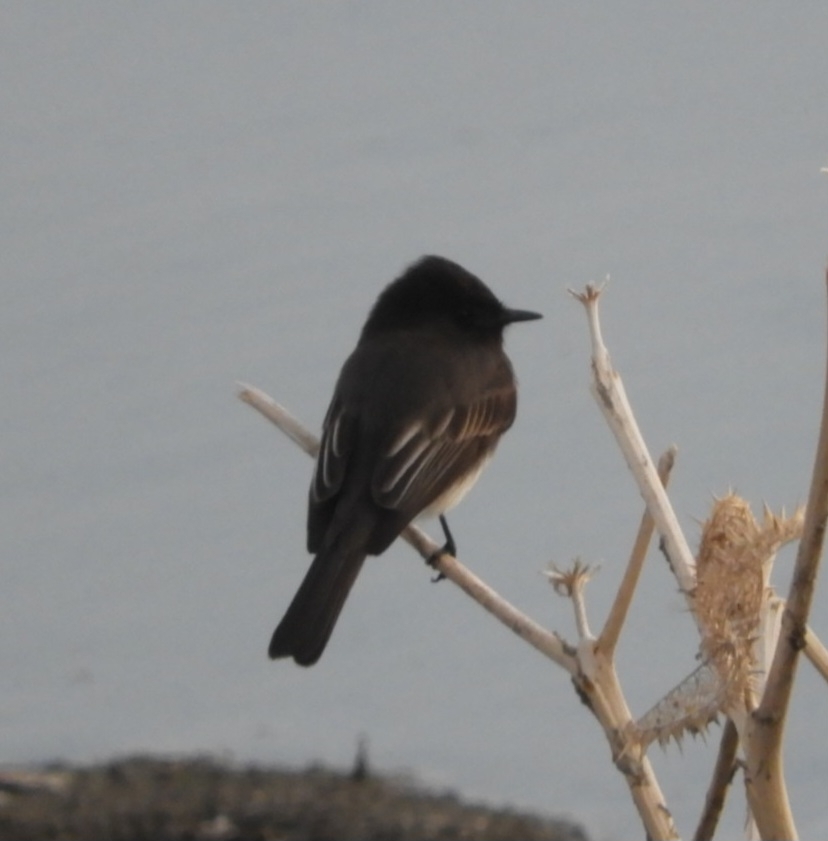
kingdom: Animalia
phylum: Chordata
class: Aves
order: Passeriformes
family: Tyrannidae
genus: Sayornis
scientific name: Sayornis nigricans
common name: Black phoebe
